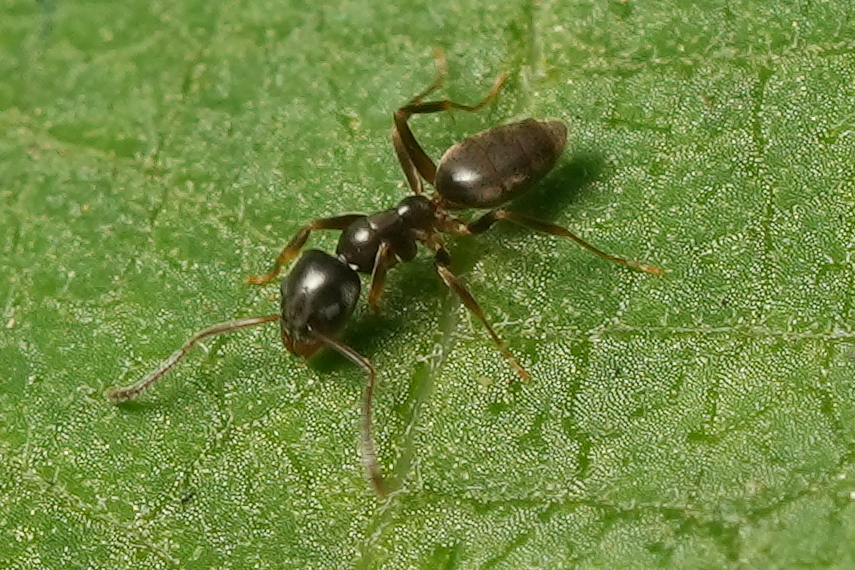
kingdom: Animalia
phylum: Arthropoda
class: Insecta
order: Hymenoptera
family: Formicidae
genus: Tapinoma
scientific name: Tapinoma sessile
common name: Odorous house ant
